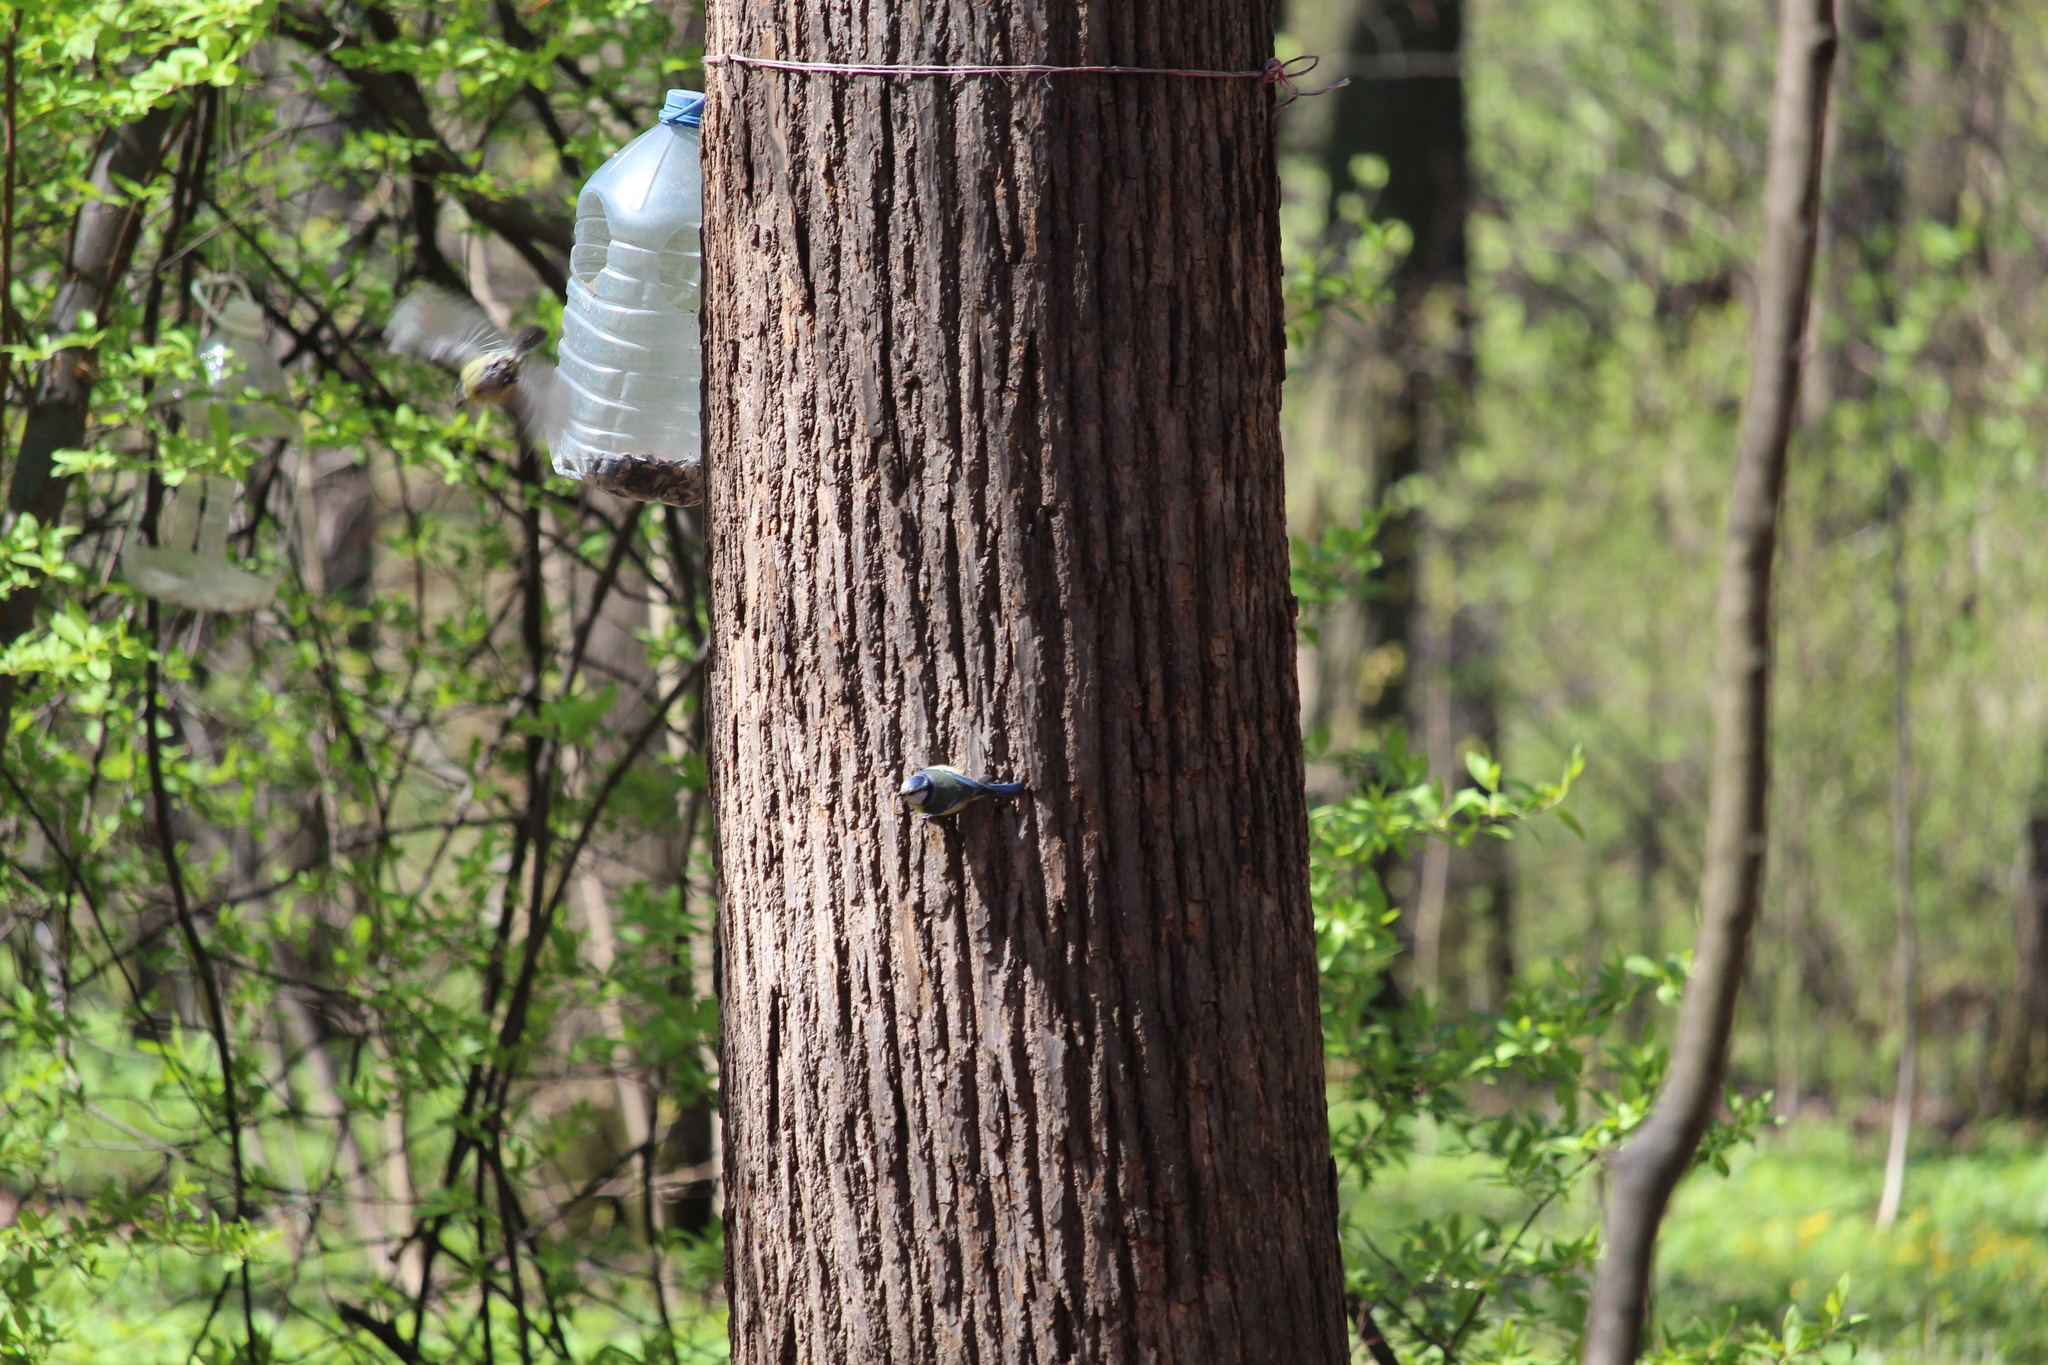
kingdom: Animalia
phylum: Chordata
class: Aves
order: Passeriformes
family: Paridae
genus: Cyanistes
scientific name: Cyanistes caeruleus
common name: Eurasian blue tit
